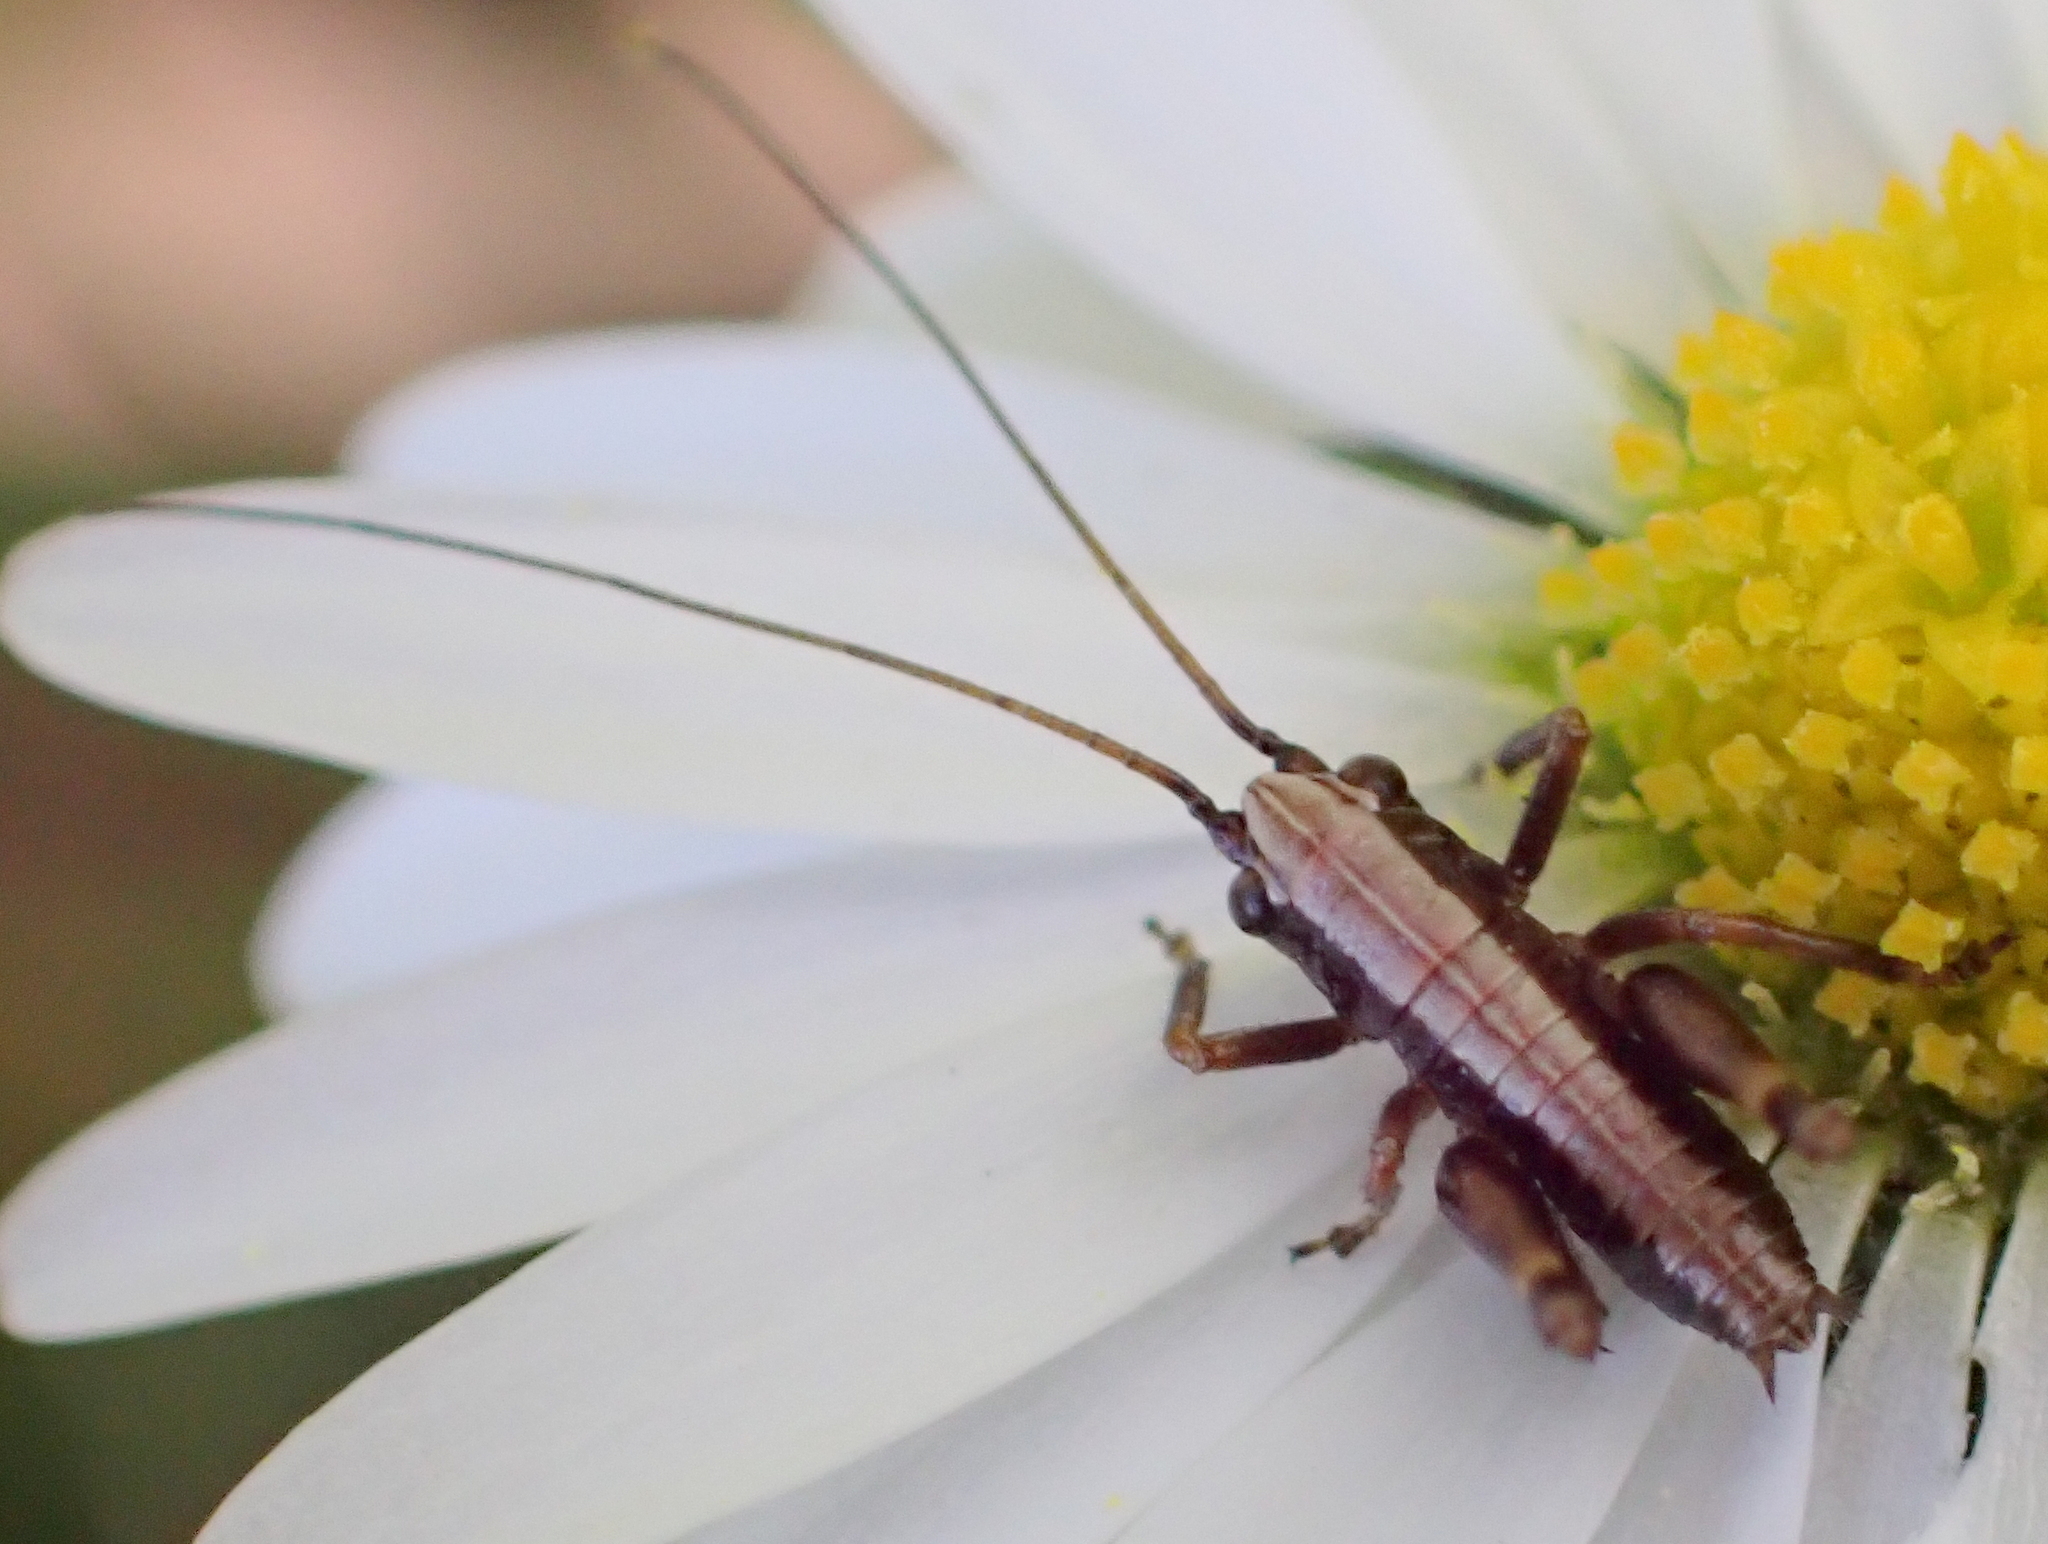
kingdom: Animalia
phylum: Arthropoda
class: Insecta
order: Orthoptera
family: Tettigoniidae
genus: Pholidoptera
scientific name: Pholidoptera griseoaptera
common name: Dark bush-cricket
